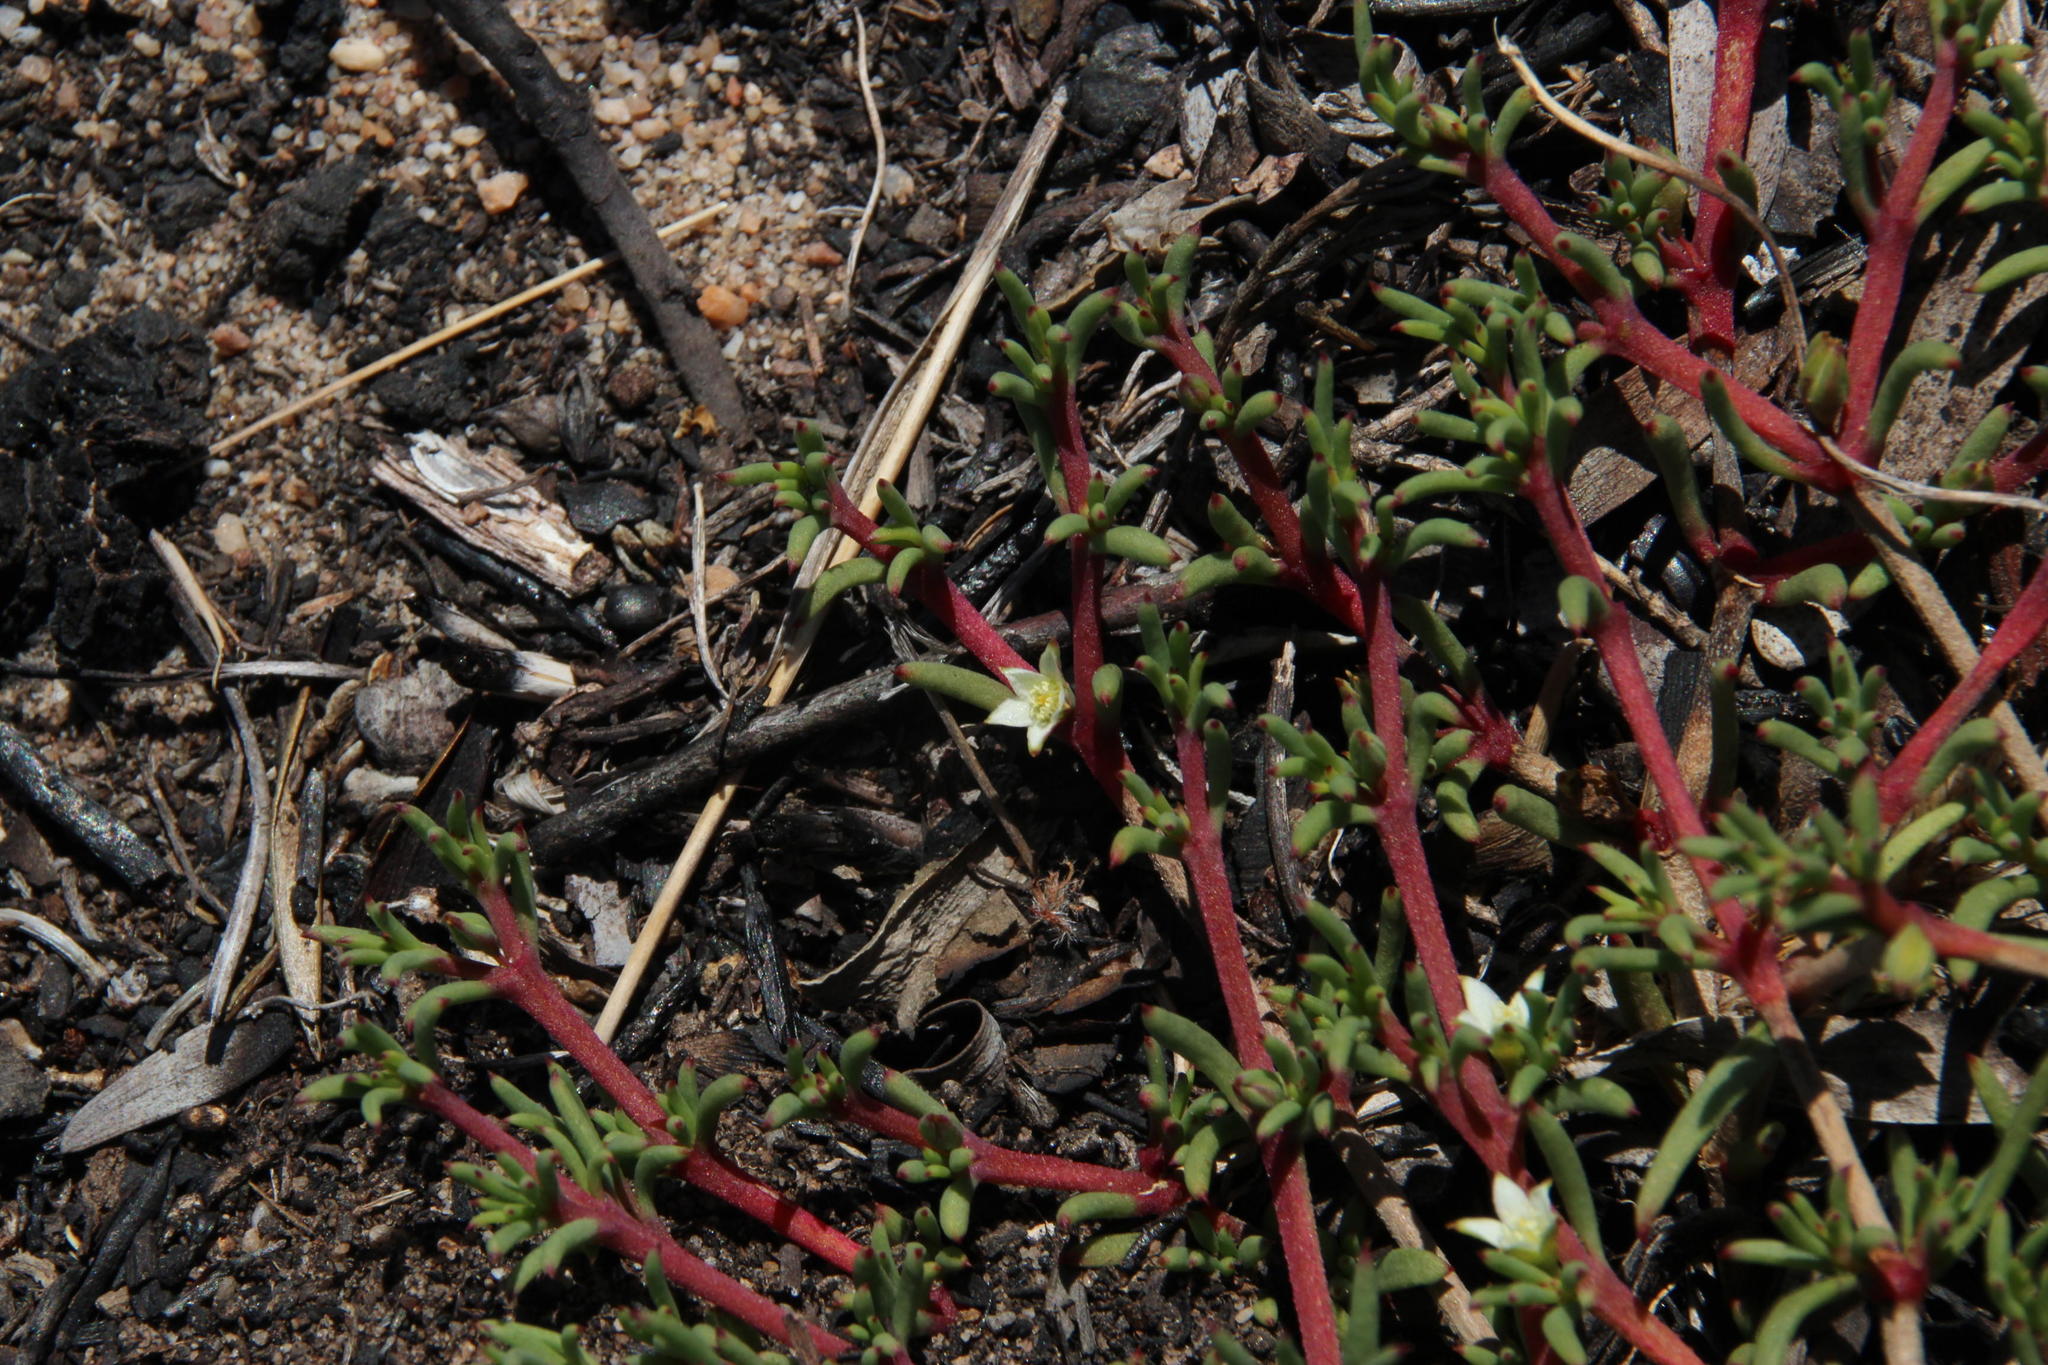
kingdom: Plantae
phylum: Tracheophyta
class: Magnoliopsida
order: Caryophyllales
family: Aizoaceae
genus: Acrosanthes
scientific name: Acrosanthes teretifolia
